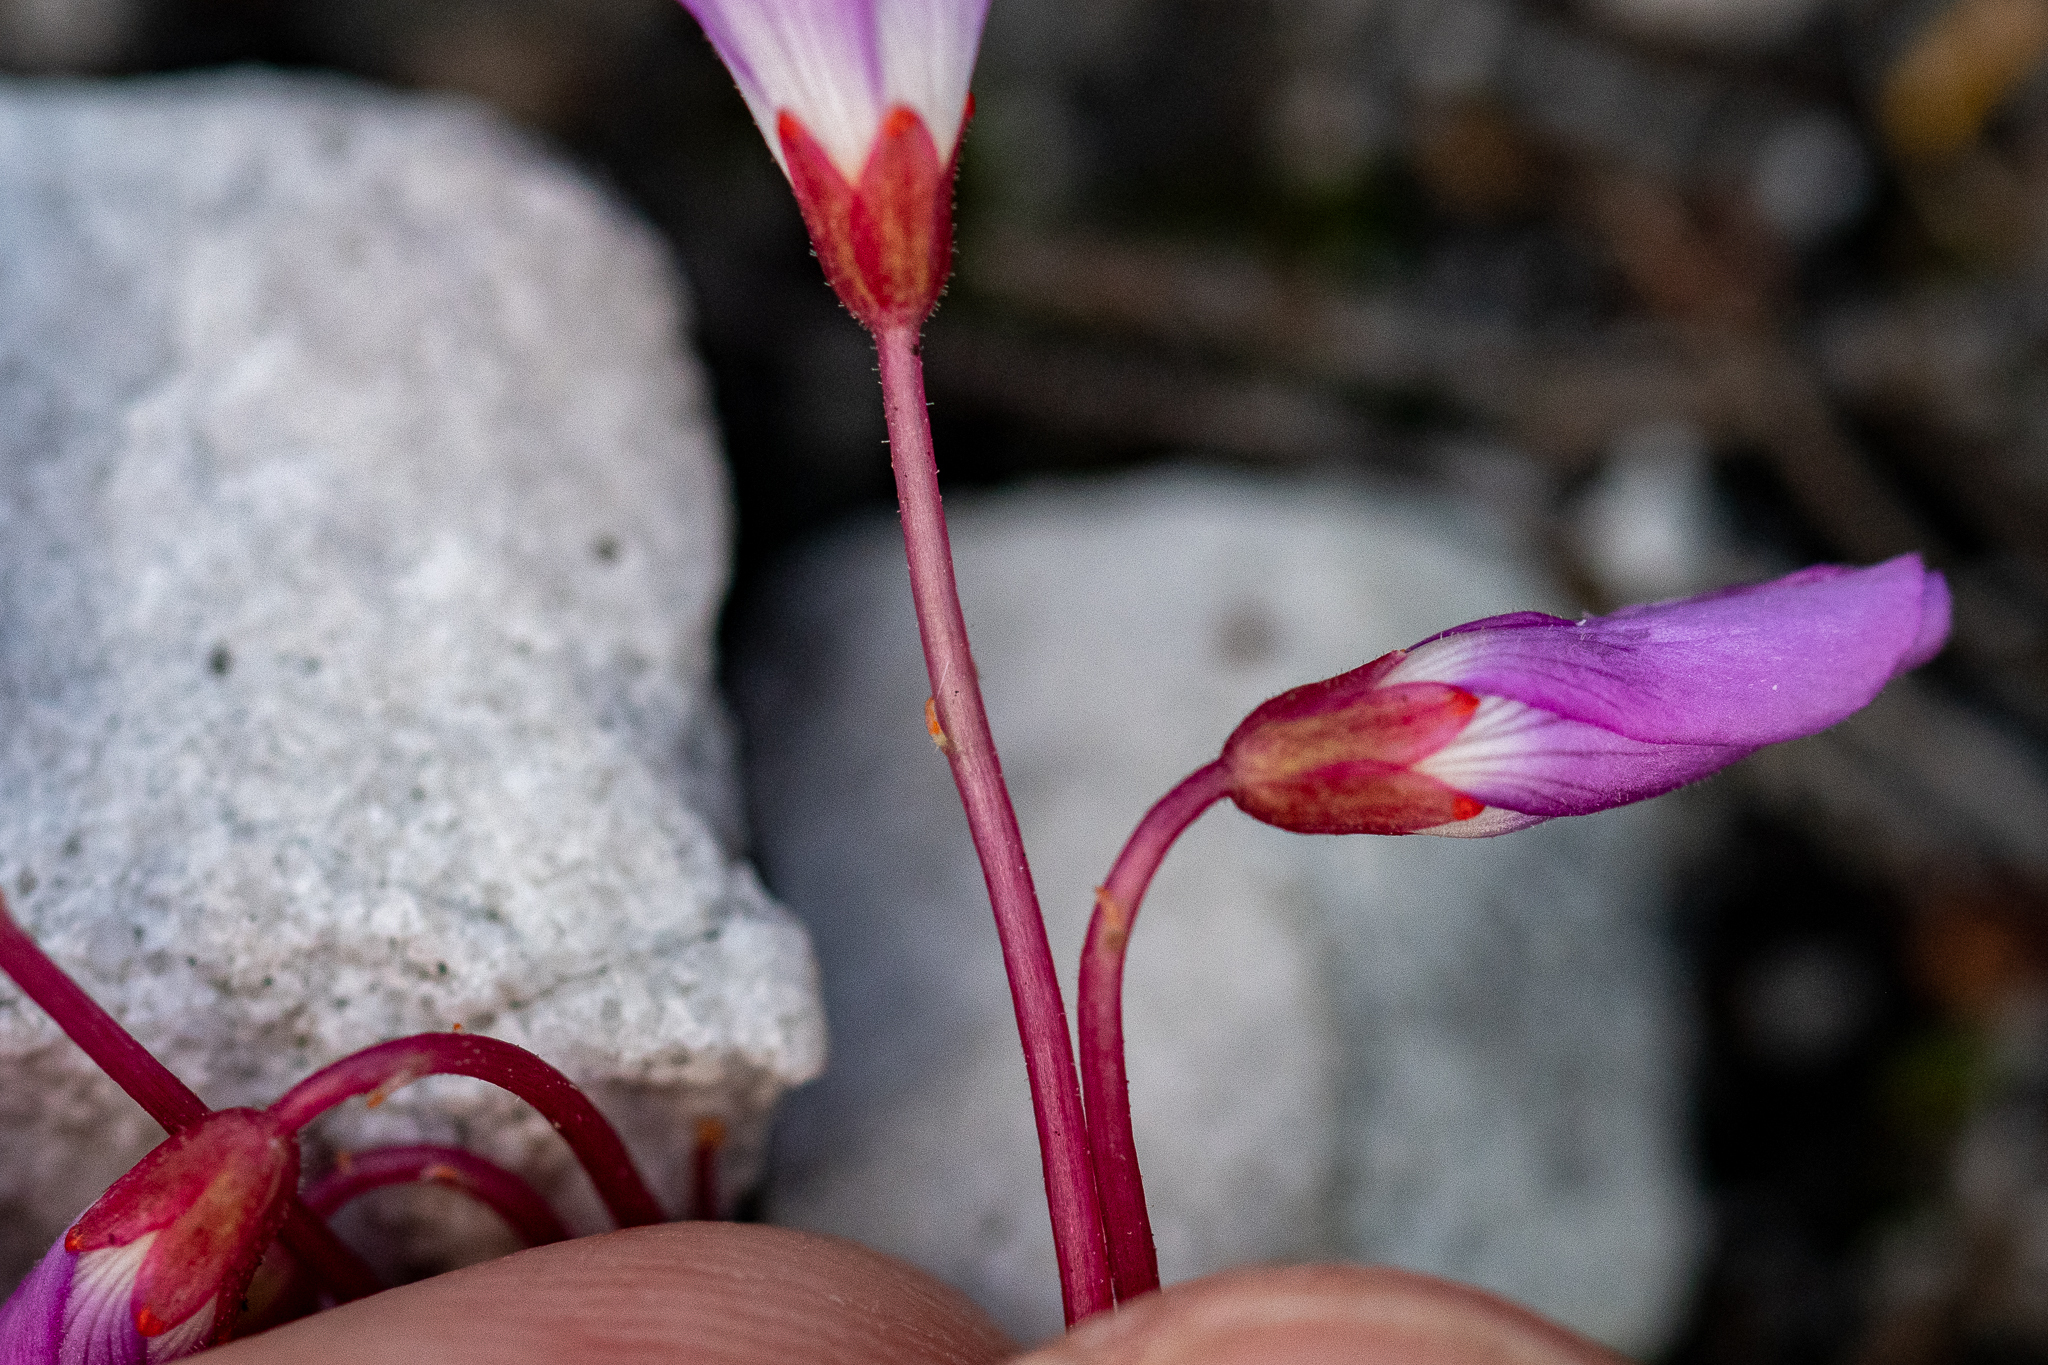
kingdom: Plantae
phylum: Tracheophyta
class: Magnoliopsida
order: Oxalidales
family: Oxalidaceae
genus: Oxalis
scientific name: Oxalis commutata
